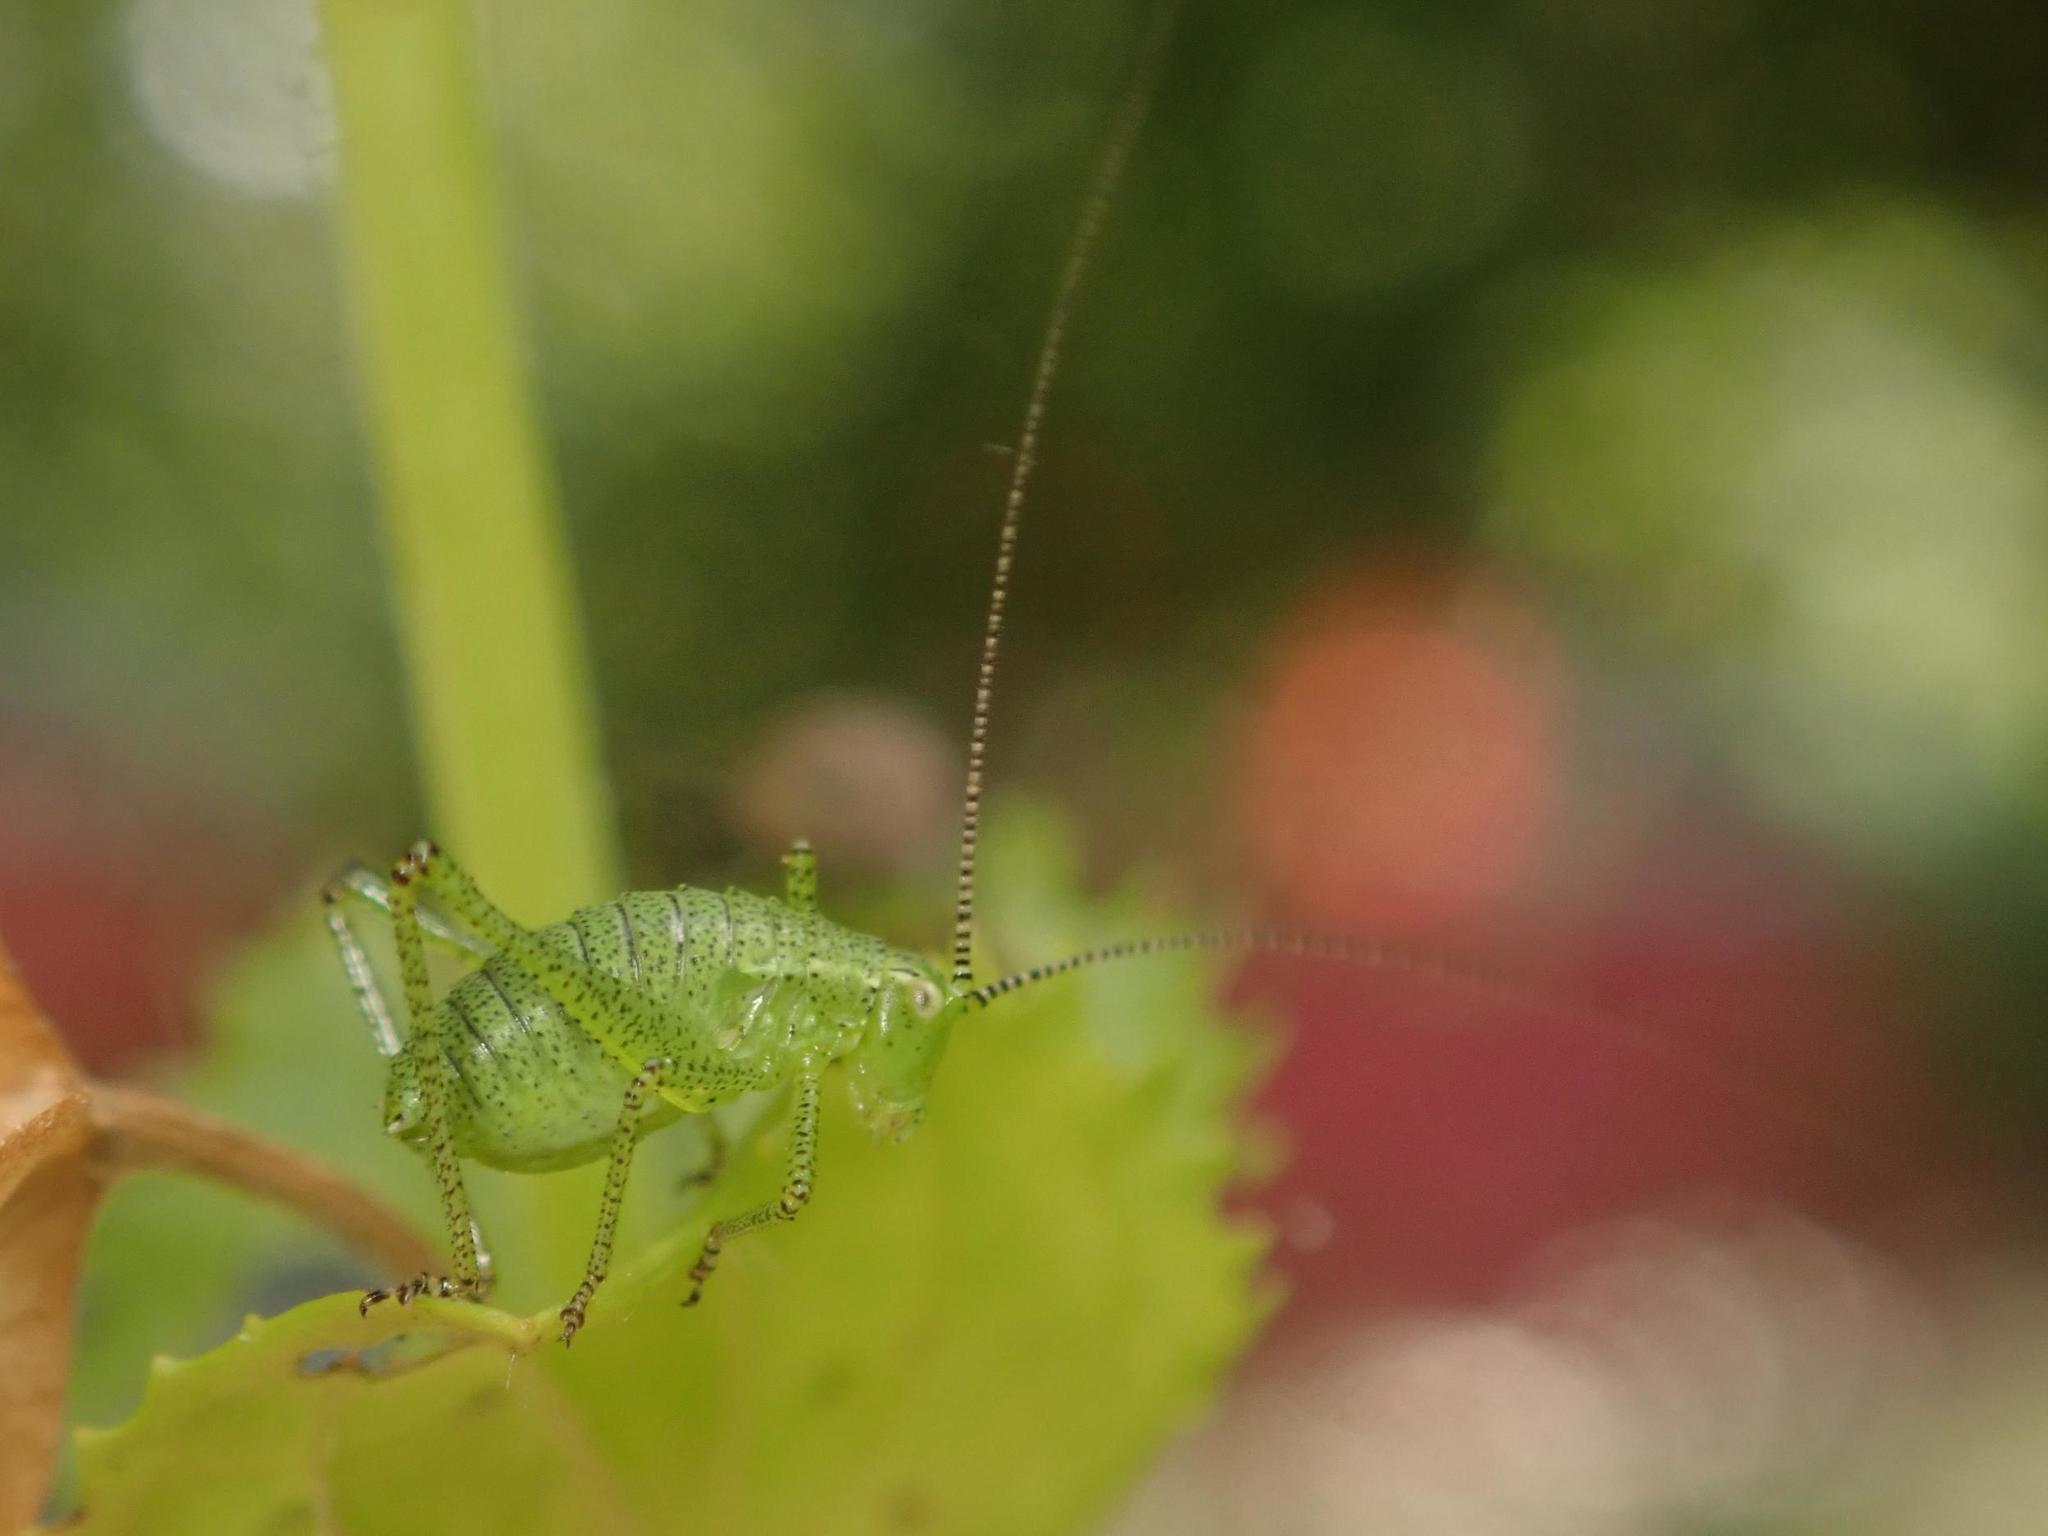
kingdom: Animalia
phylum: Arthropoda
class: Insecta
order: Orthoptera
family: Tettigoniidae
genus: Leptophyes
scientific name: Leptophyes punctatissima
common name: Speckled bush-cricket
